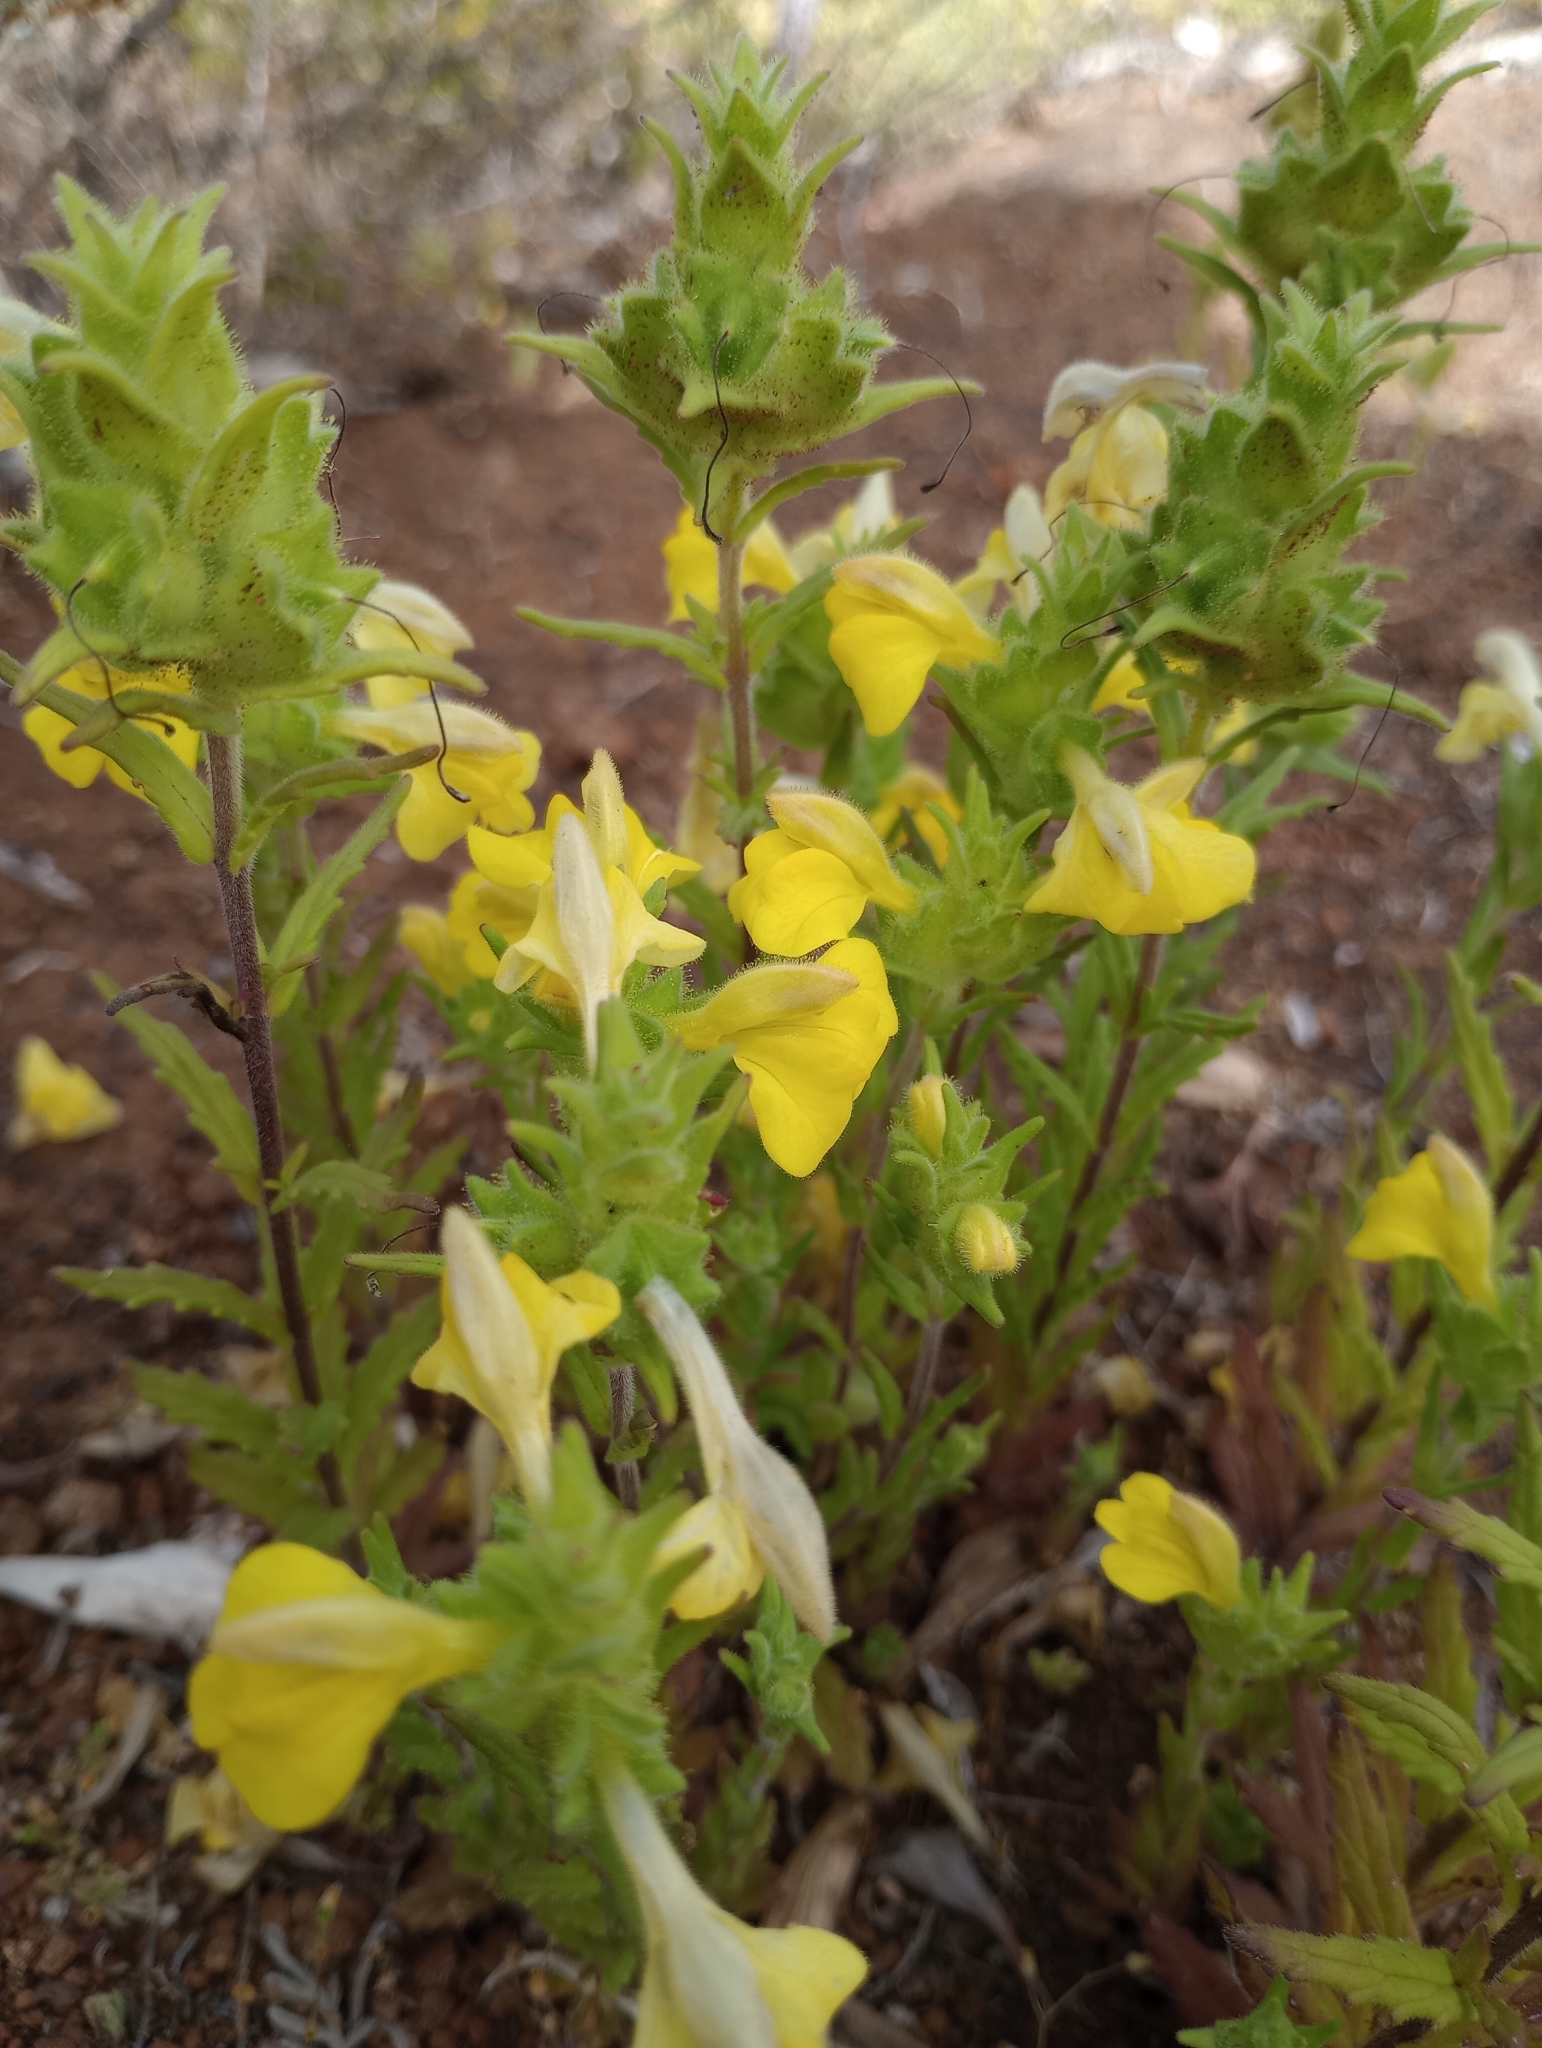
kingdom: Plantae
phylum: Tracheophyta
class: Magnoliopsida
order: Lamiales
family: Orobanchaceae
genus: Bellardia
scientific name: Bellardia trixago
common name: Mediterranean lineseed
